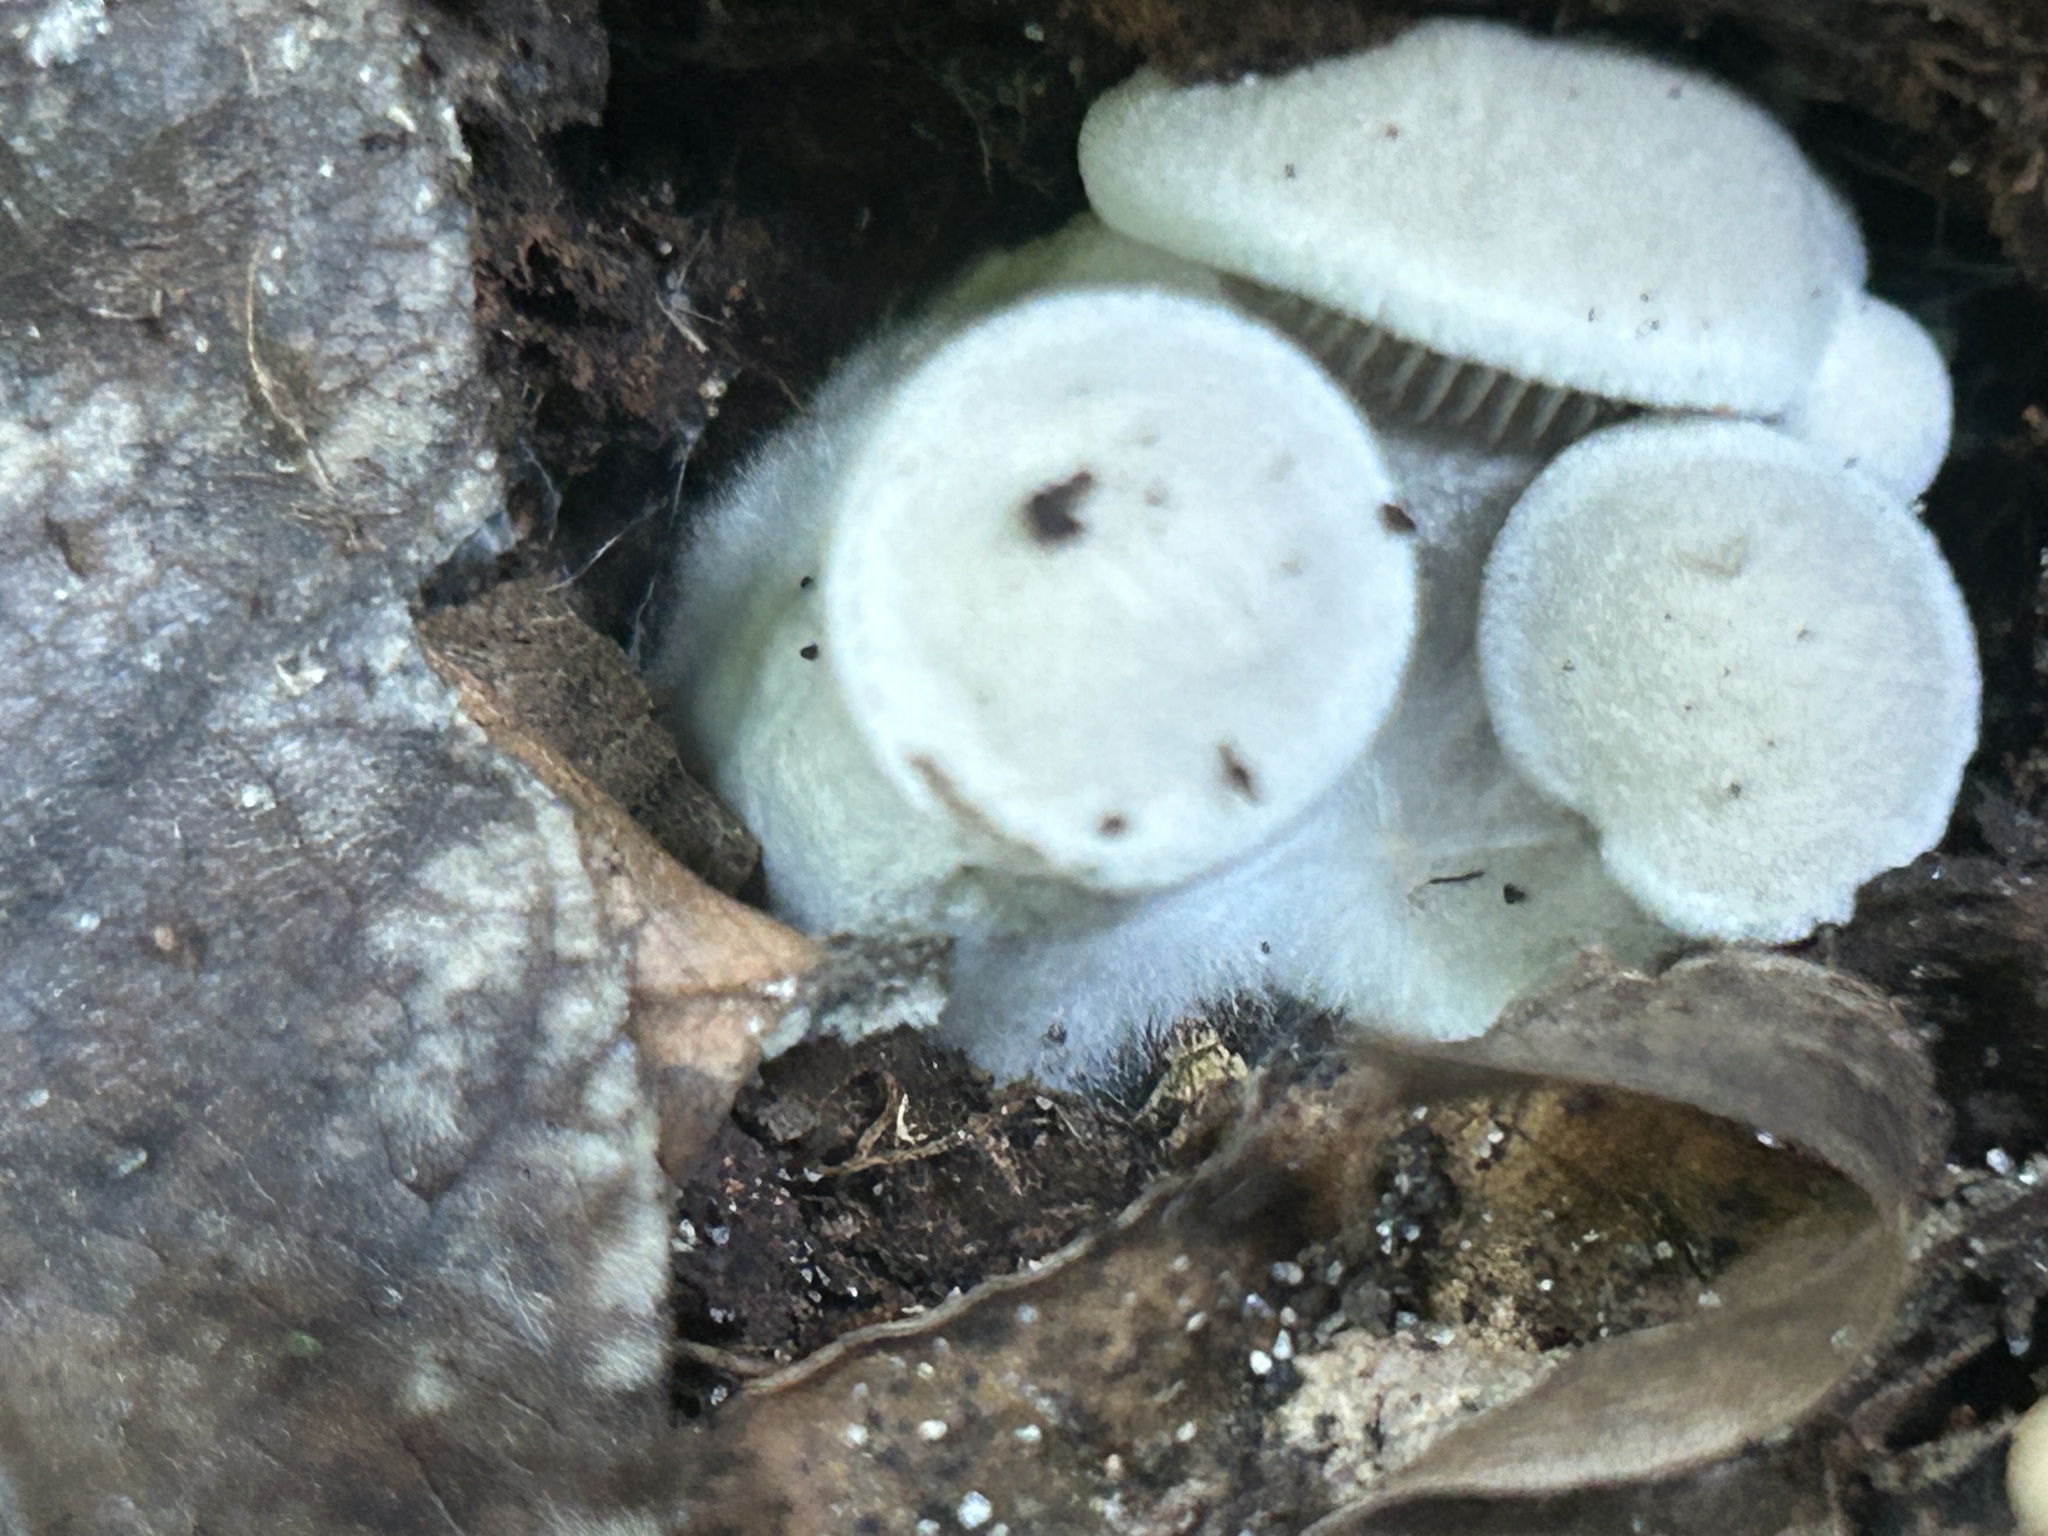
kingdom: Fungi
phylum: Basidiomycota
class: Agaricomycetes
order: Agaricales
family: Entolomataceae
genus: Entoloma
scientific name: Entoloma abortivum
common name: Aborted entoloma
